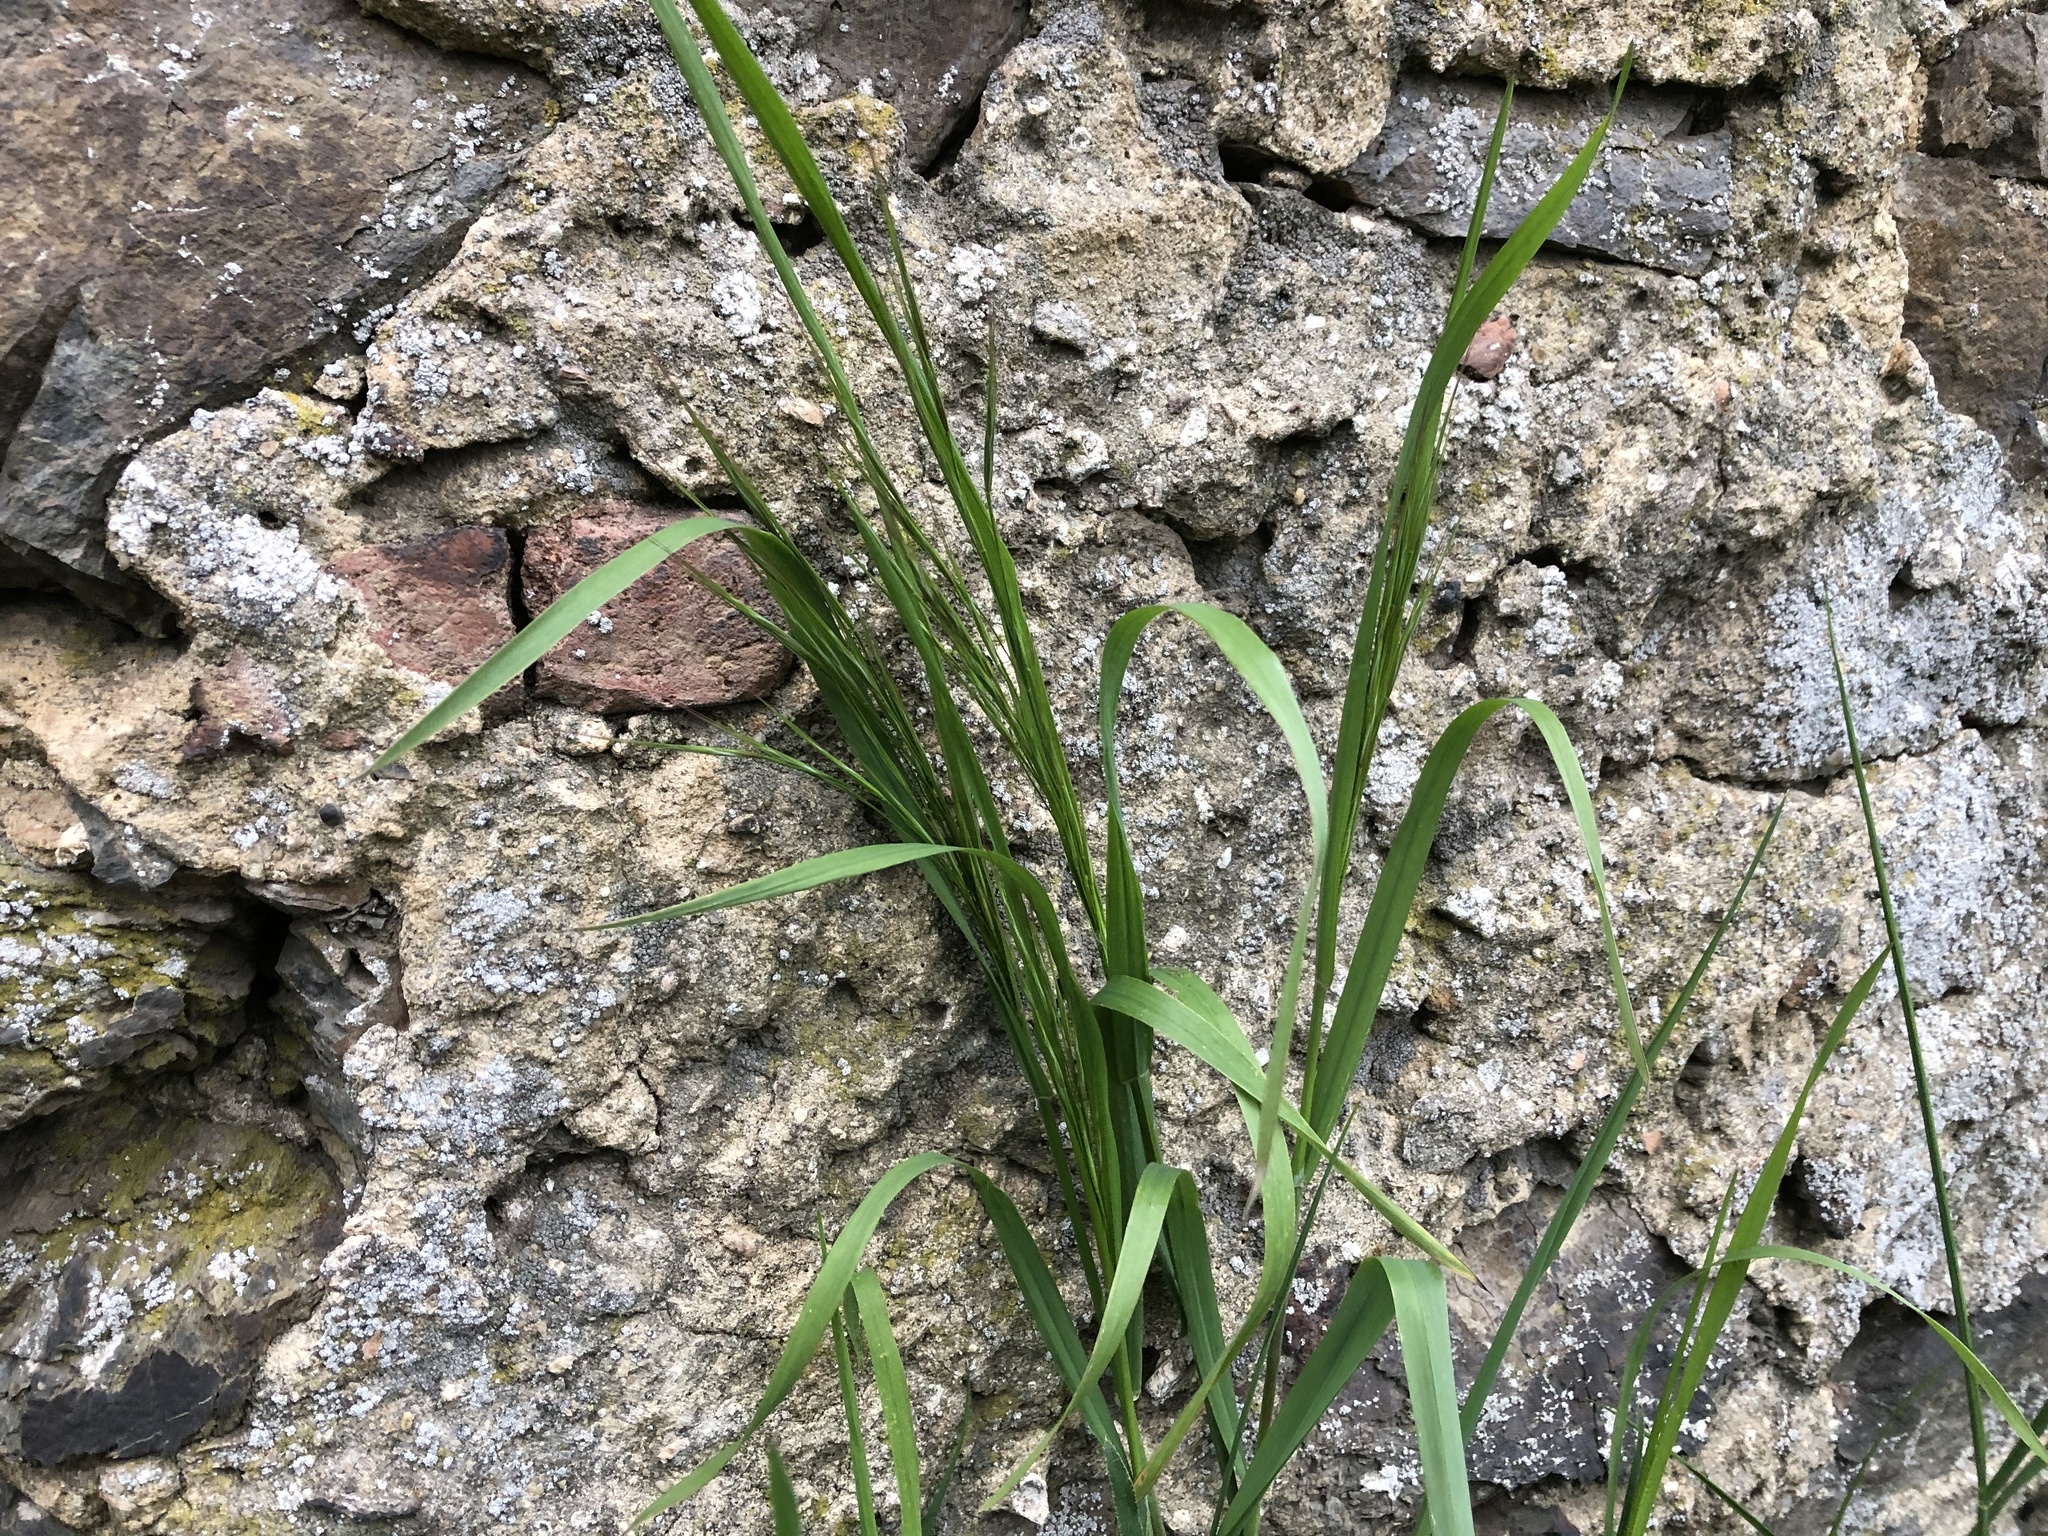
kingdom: Plantae
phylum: Tracheophyta
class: Liliopsida
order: Poales
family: Poaceae
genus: Bromus
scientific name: Bromus sterilis
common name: Poverty brome
